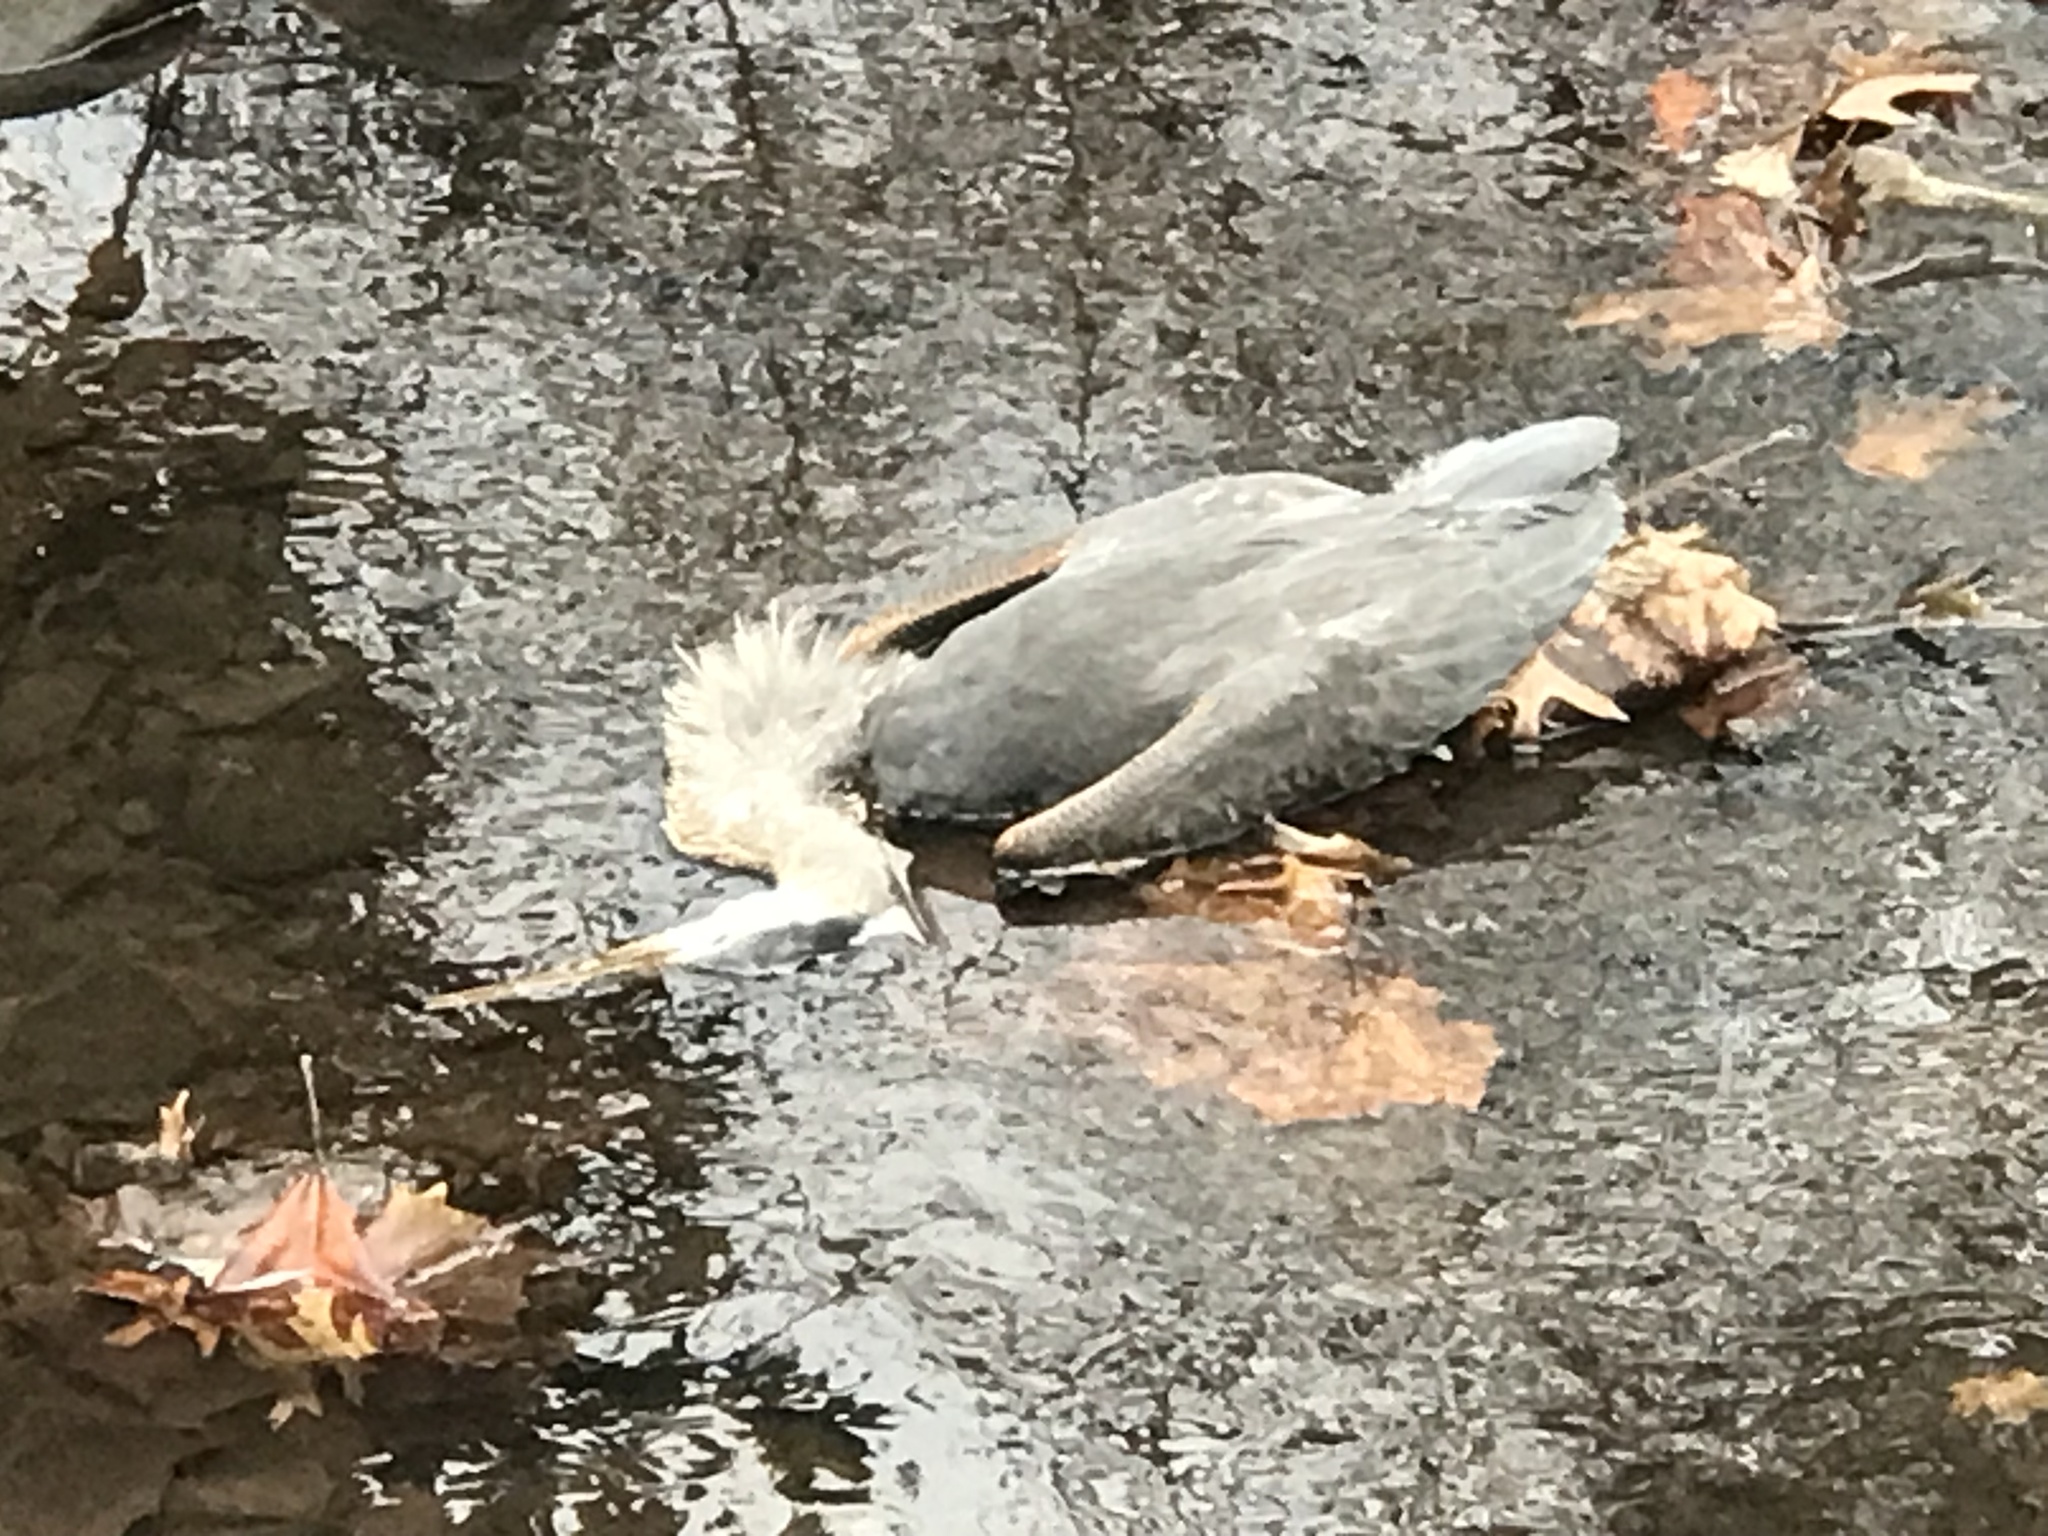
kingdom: Animalia
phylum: Chordata
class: Aves
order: Pelecaniformes
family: Ardeidae
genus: Ardea
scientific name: Ardea herodias
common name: Great blue heron
